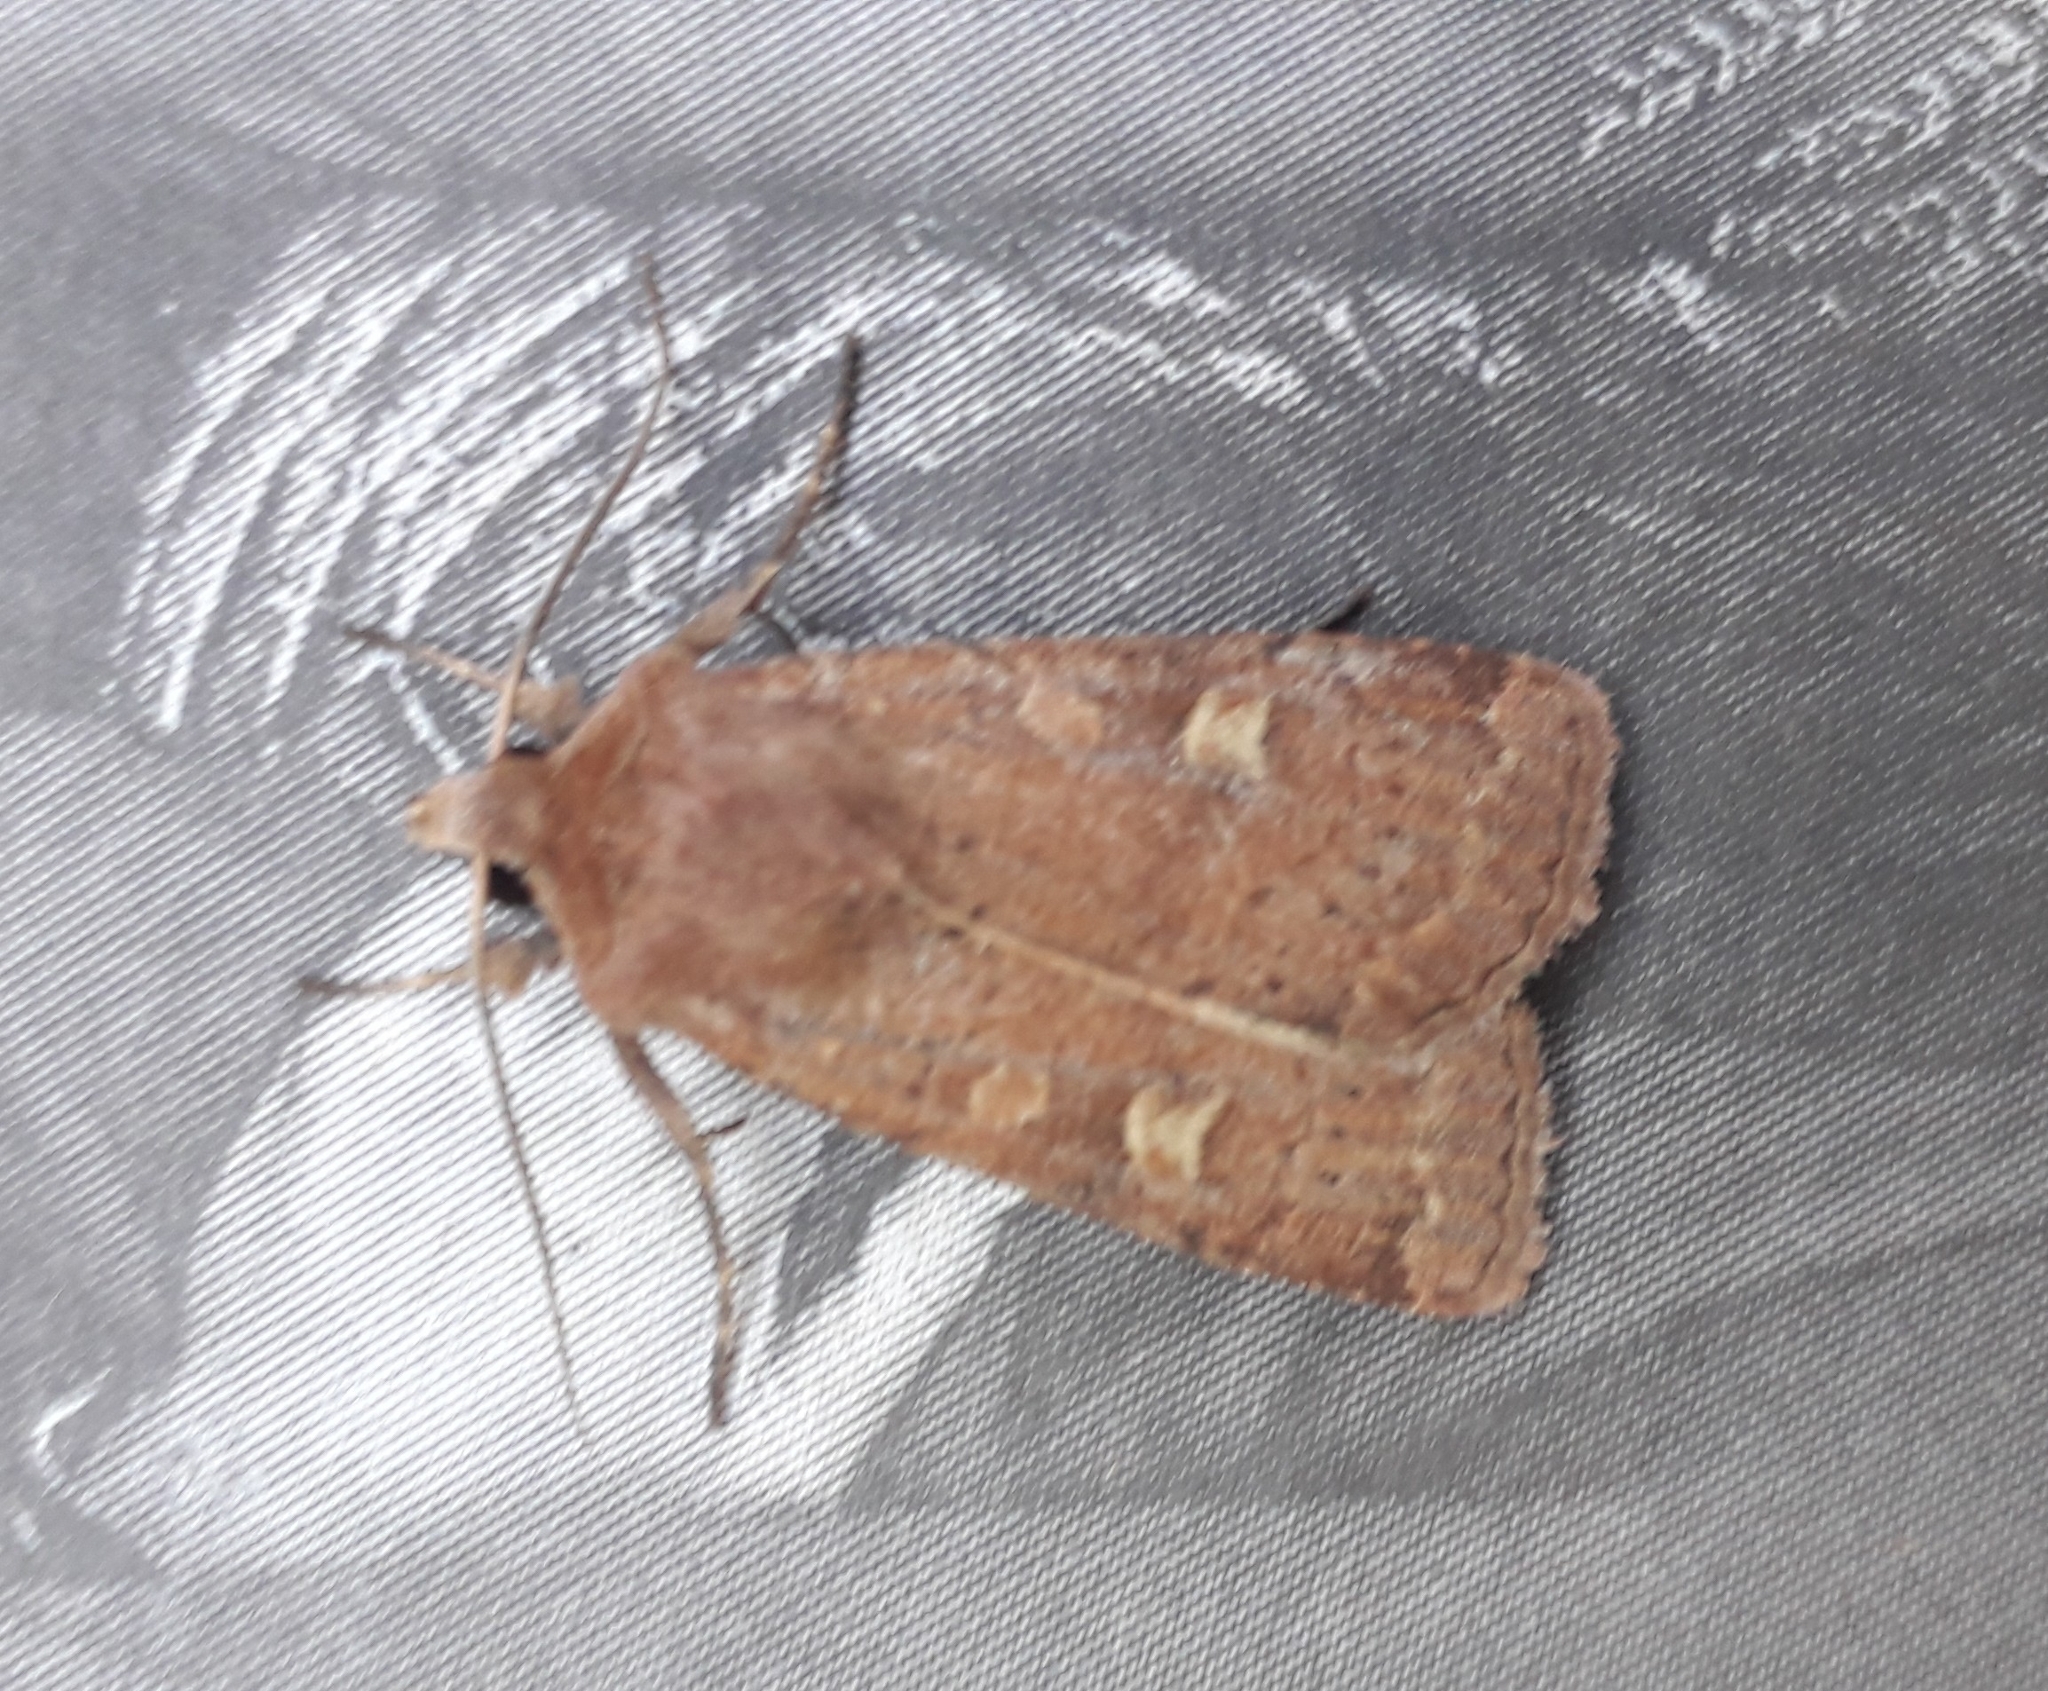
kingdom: Animalia
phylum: Arthropoda
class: Insecta
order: Lepidoptera
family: Noctuidae
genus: Xestia
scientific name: Xestia xanthographa
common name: Square-spot rustic
